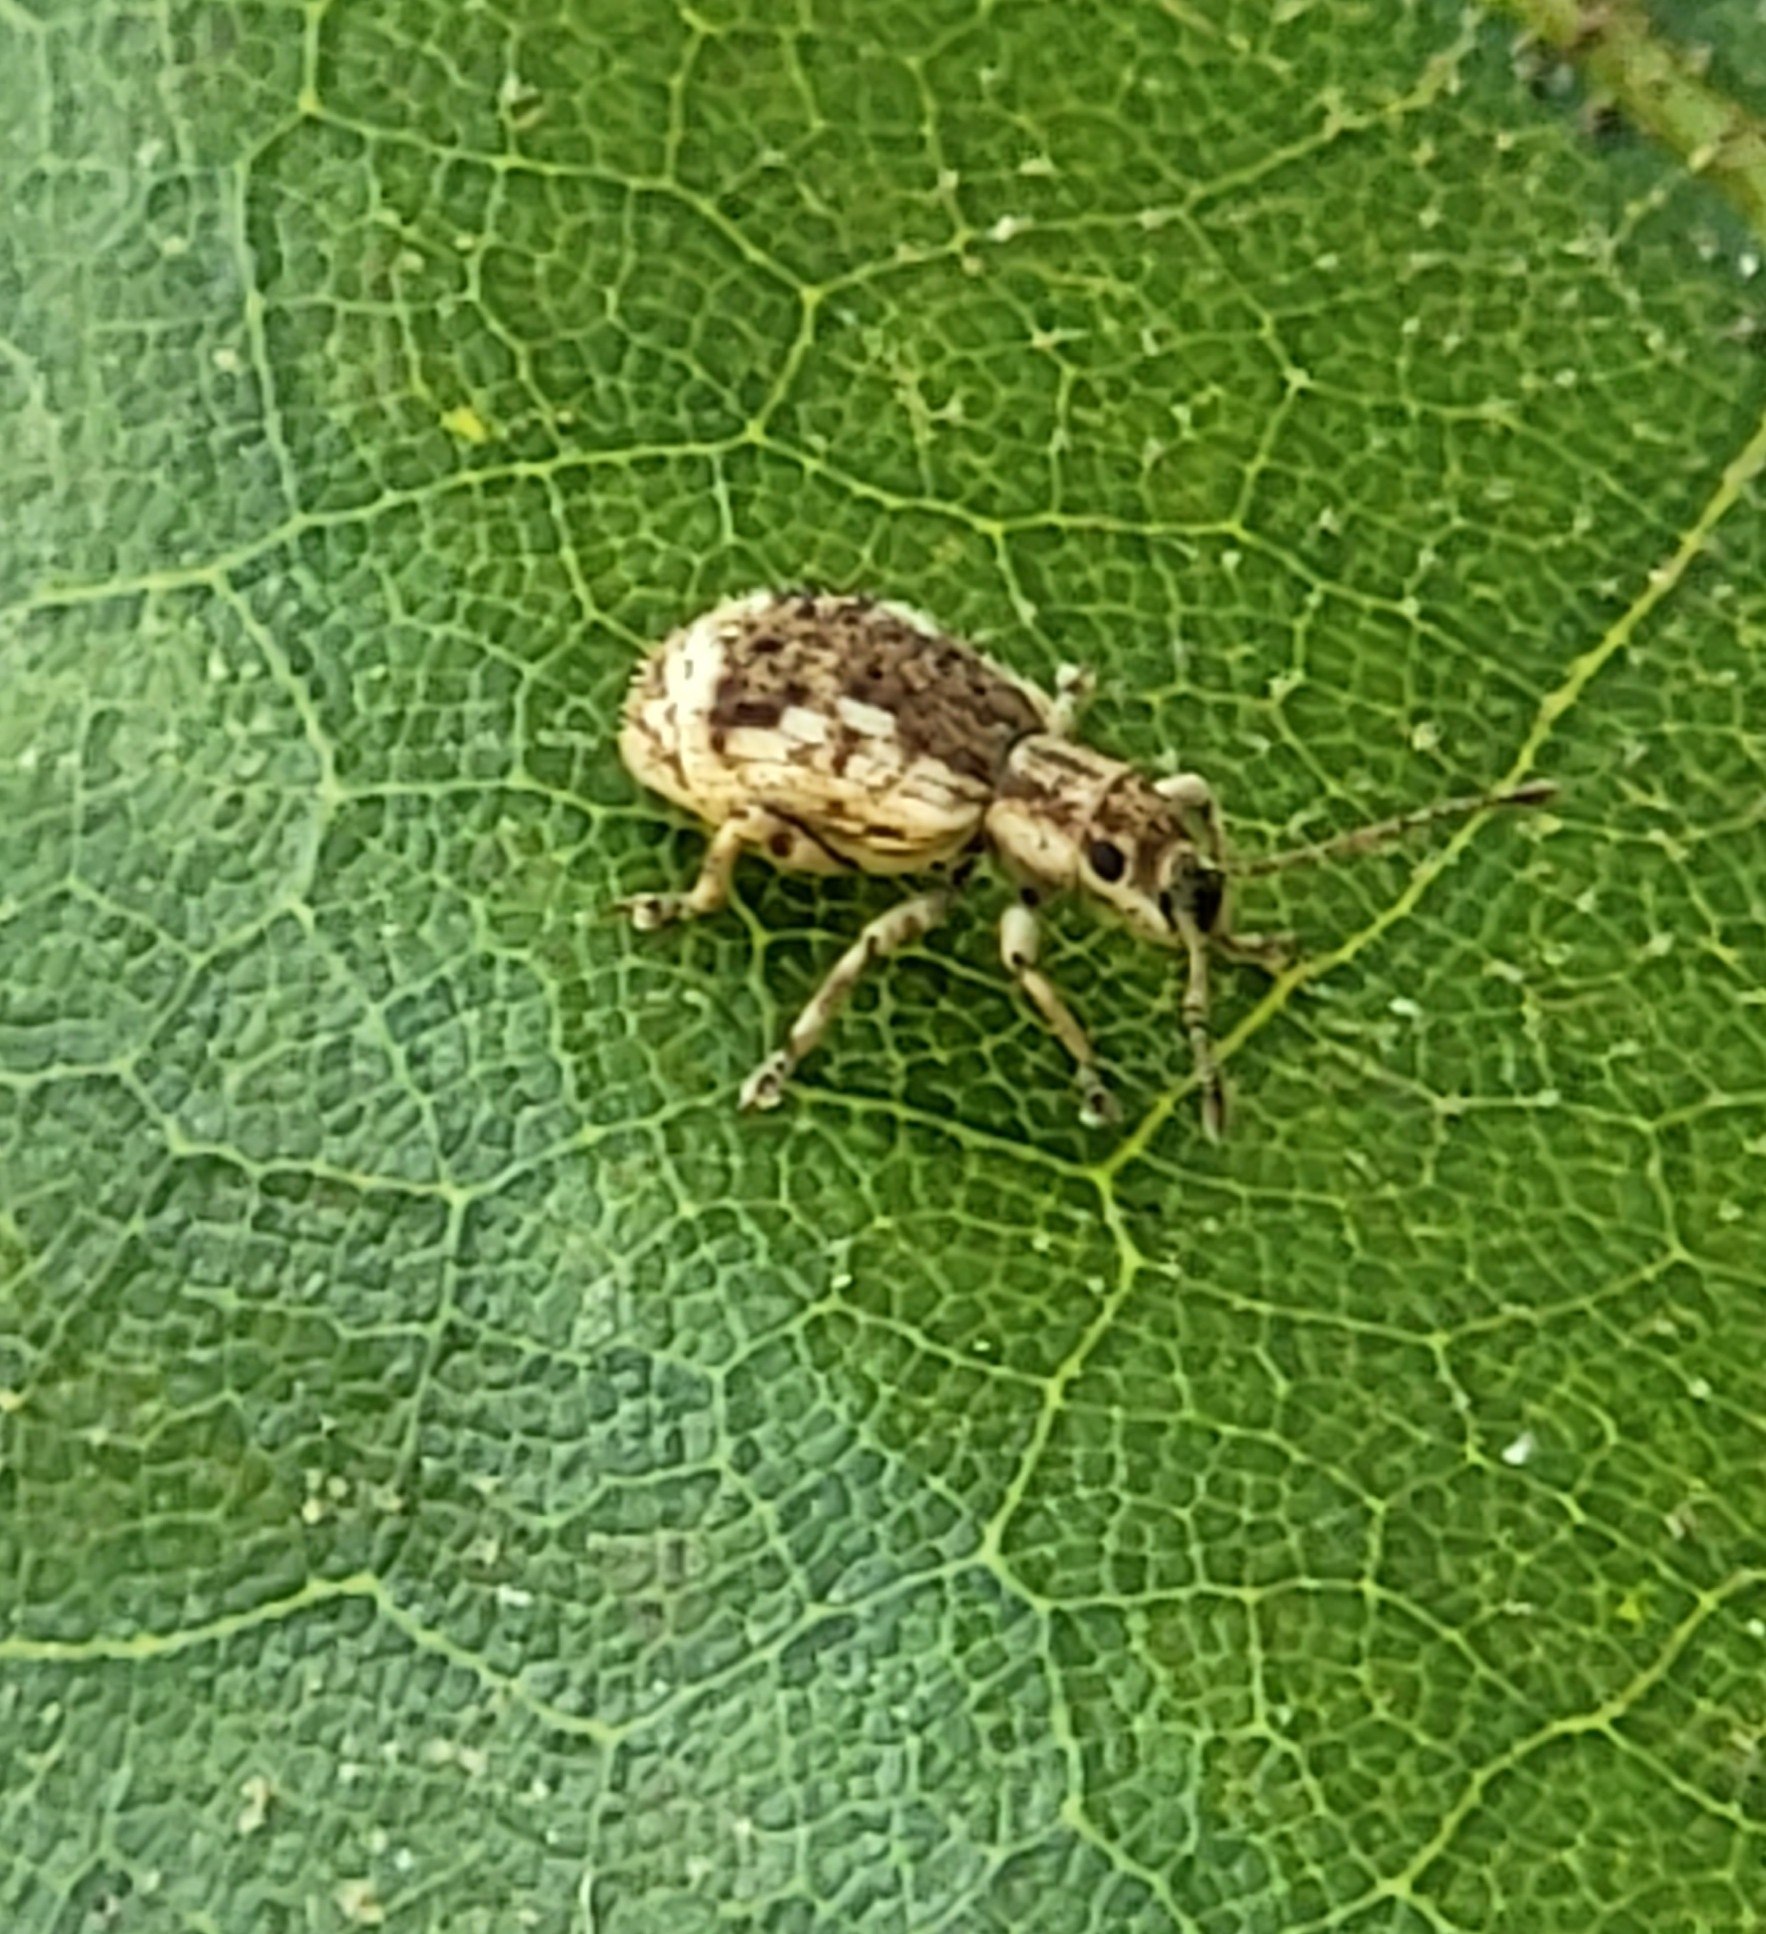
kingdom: Animalia
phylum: Arthropoda
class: Insecta
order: Coleoptera
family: Curculionidae
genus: Pseudoedophrys
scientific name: Pseudoedophrys hilleri
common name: Weevil
